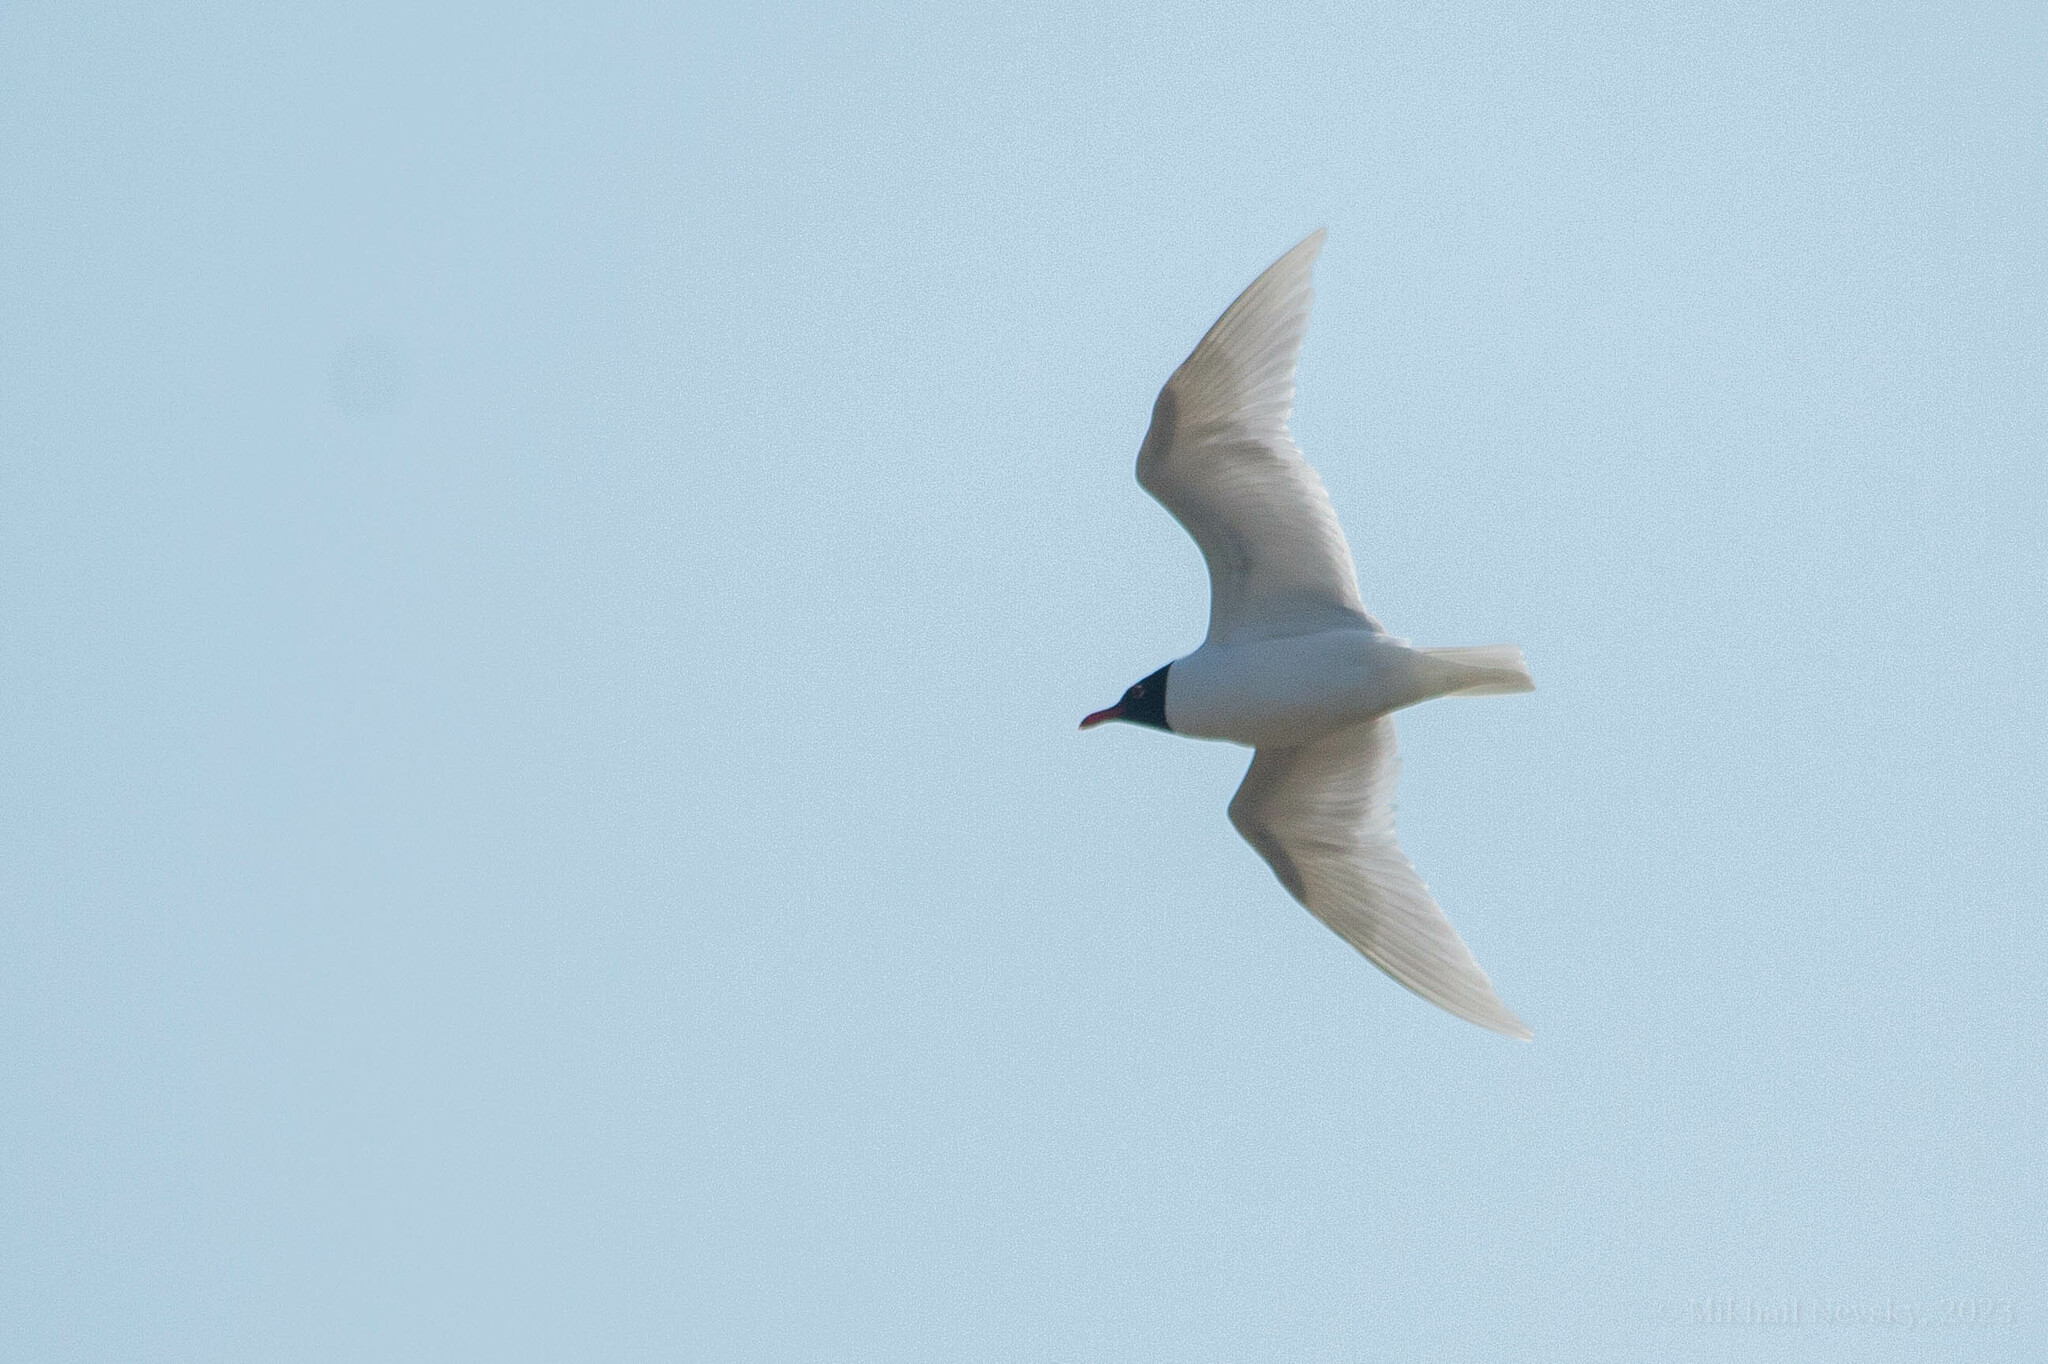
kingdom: Animalia
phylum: Chordata
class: Aves
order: Charadriiformes
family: Laridae
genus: Ichthyaetus
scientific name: Ichthyaetus melanocephalus
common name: Mediterranean gull
